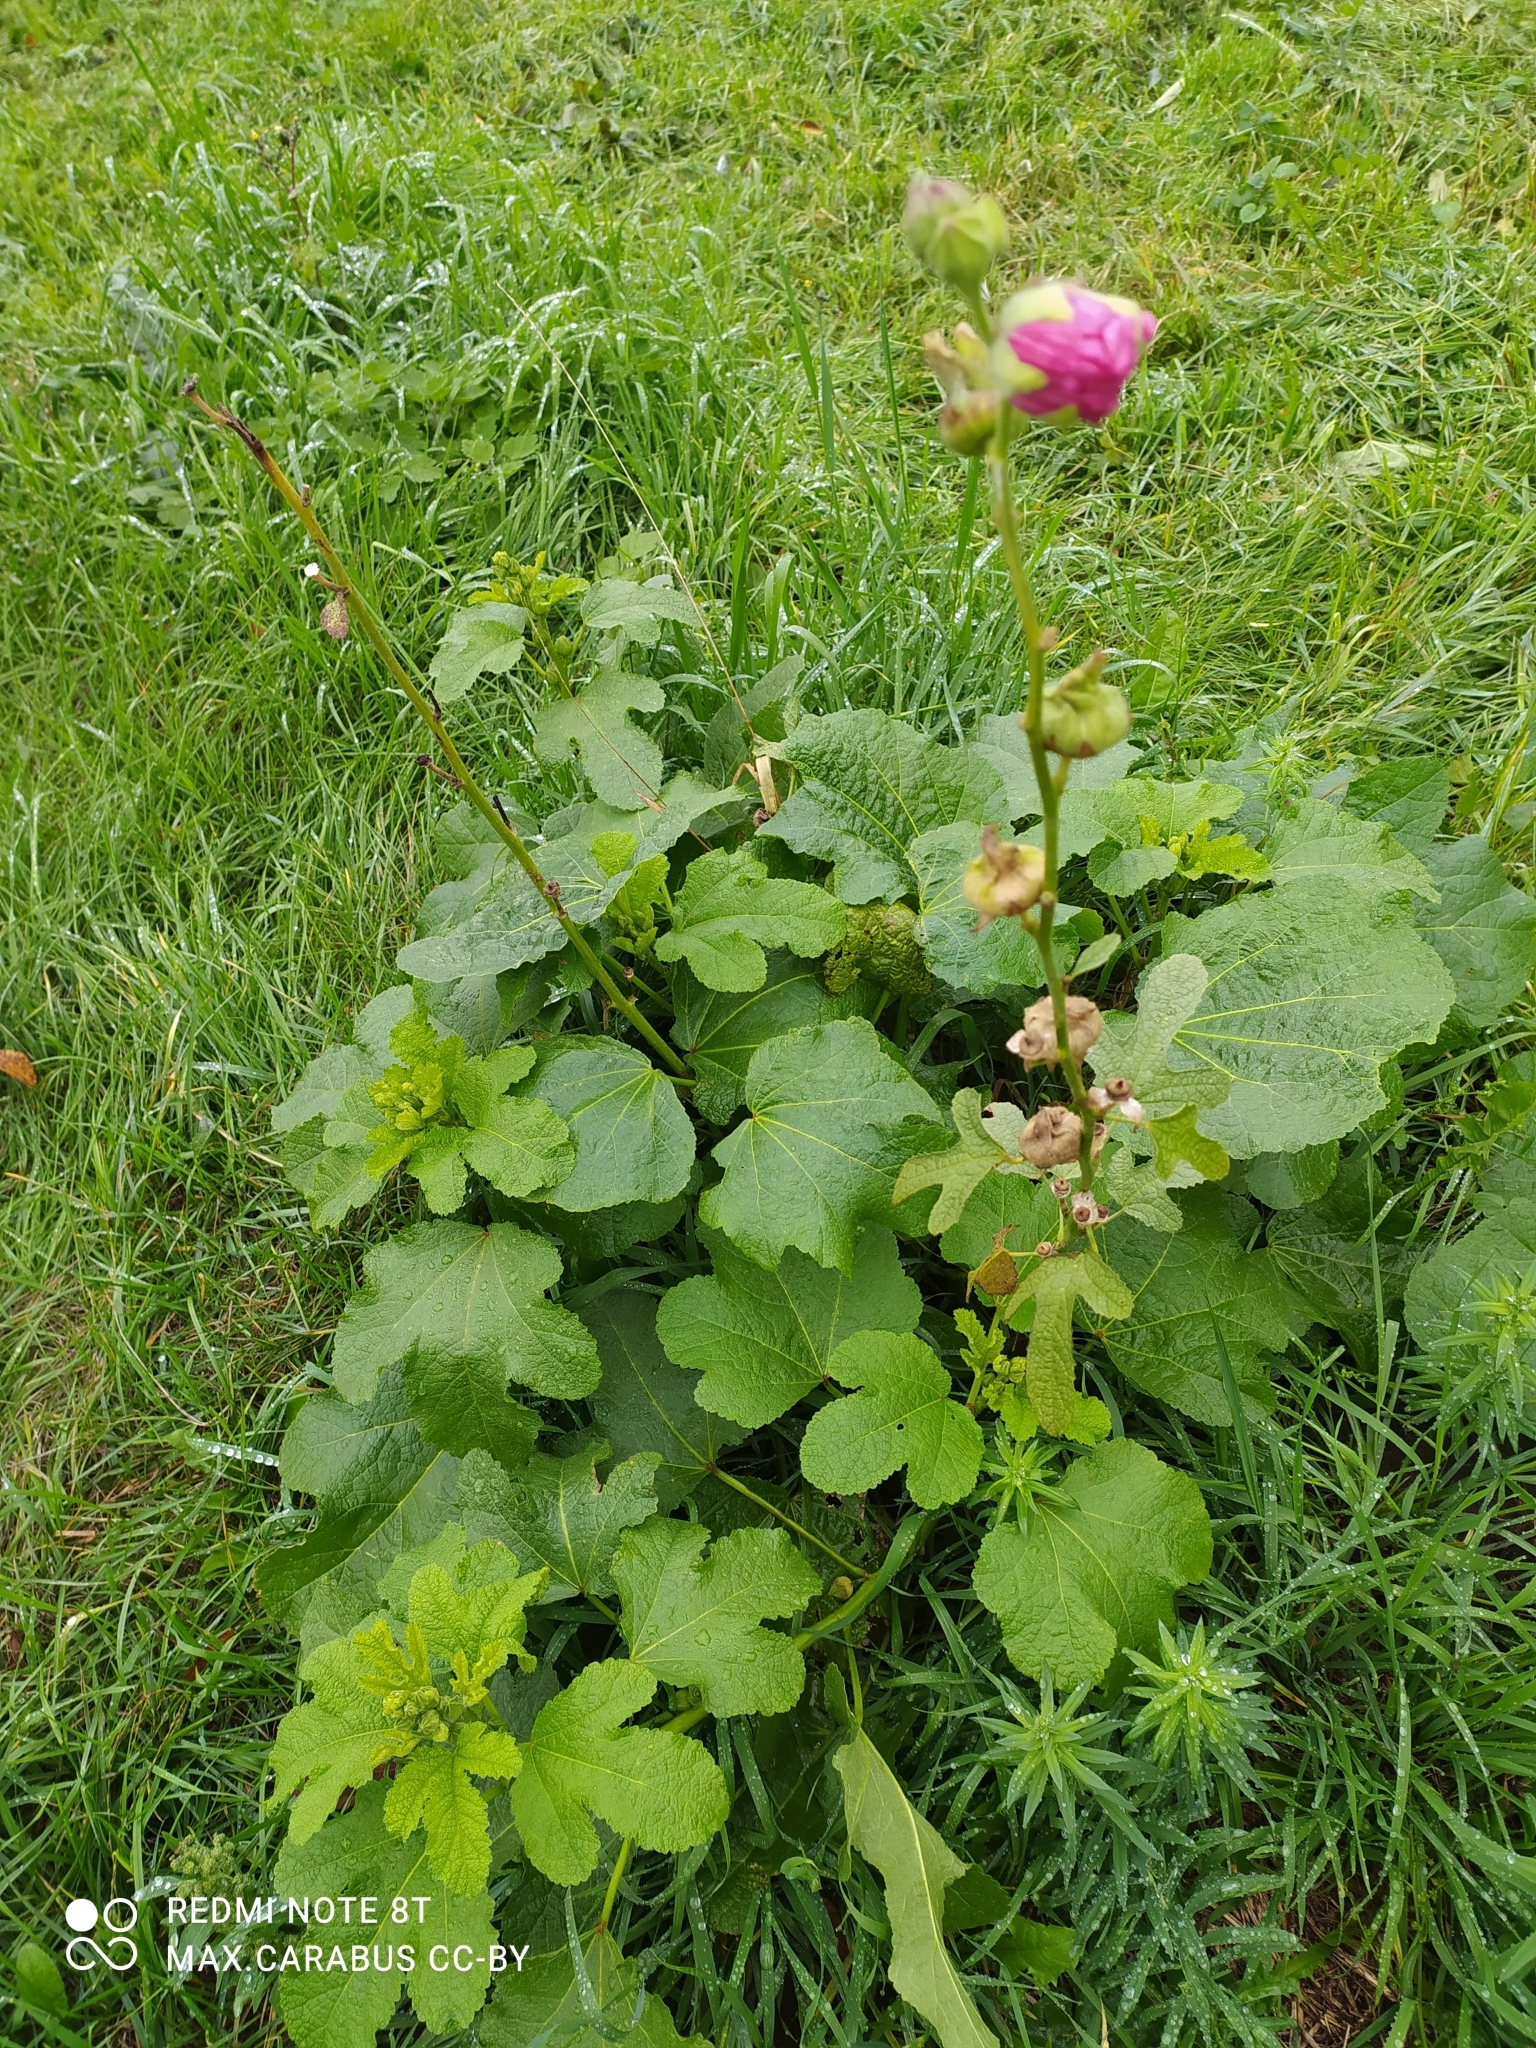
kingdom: Plantae
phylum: Tracheophyta
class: Magnoliopsida
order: Malvales
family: Malvaceae
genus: Alcea
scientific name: Alcea rosea
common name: Hollyhock
